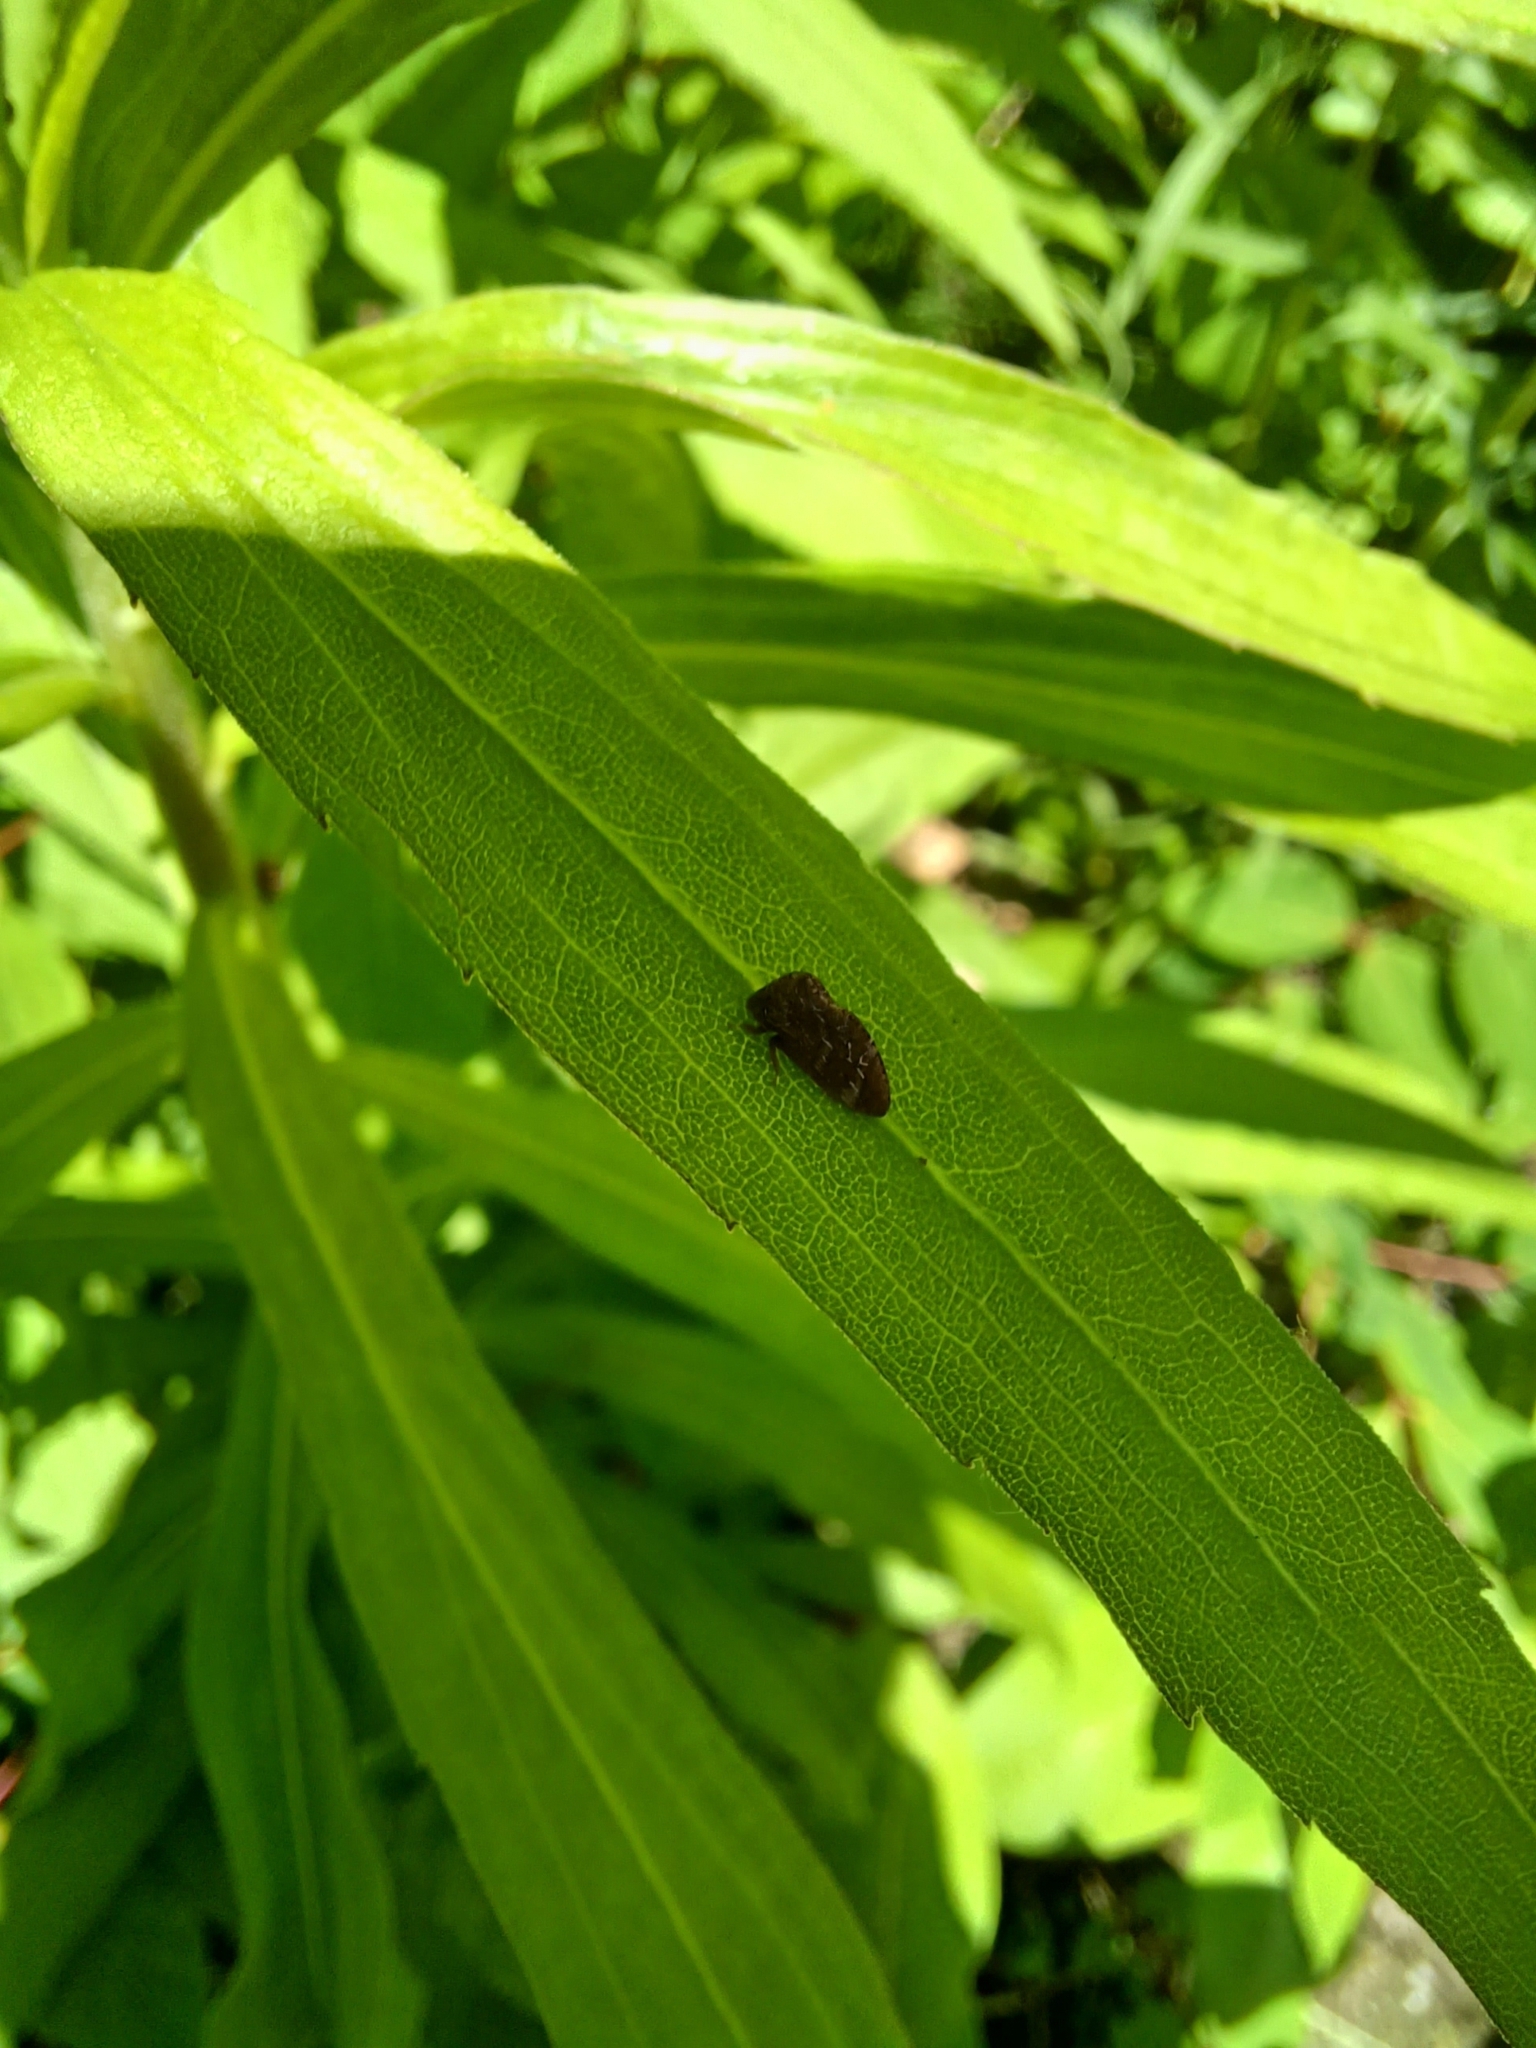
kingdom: Animalia
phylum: Arthropoda
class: Insecta
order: Hemiptera
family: Membracidae
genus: Publilia
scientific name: Publilia concava
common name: Aster treehopper
